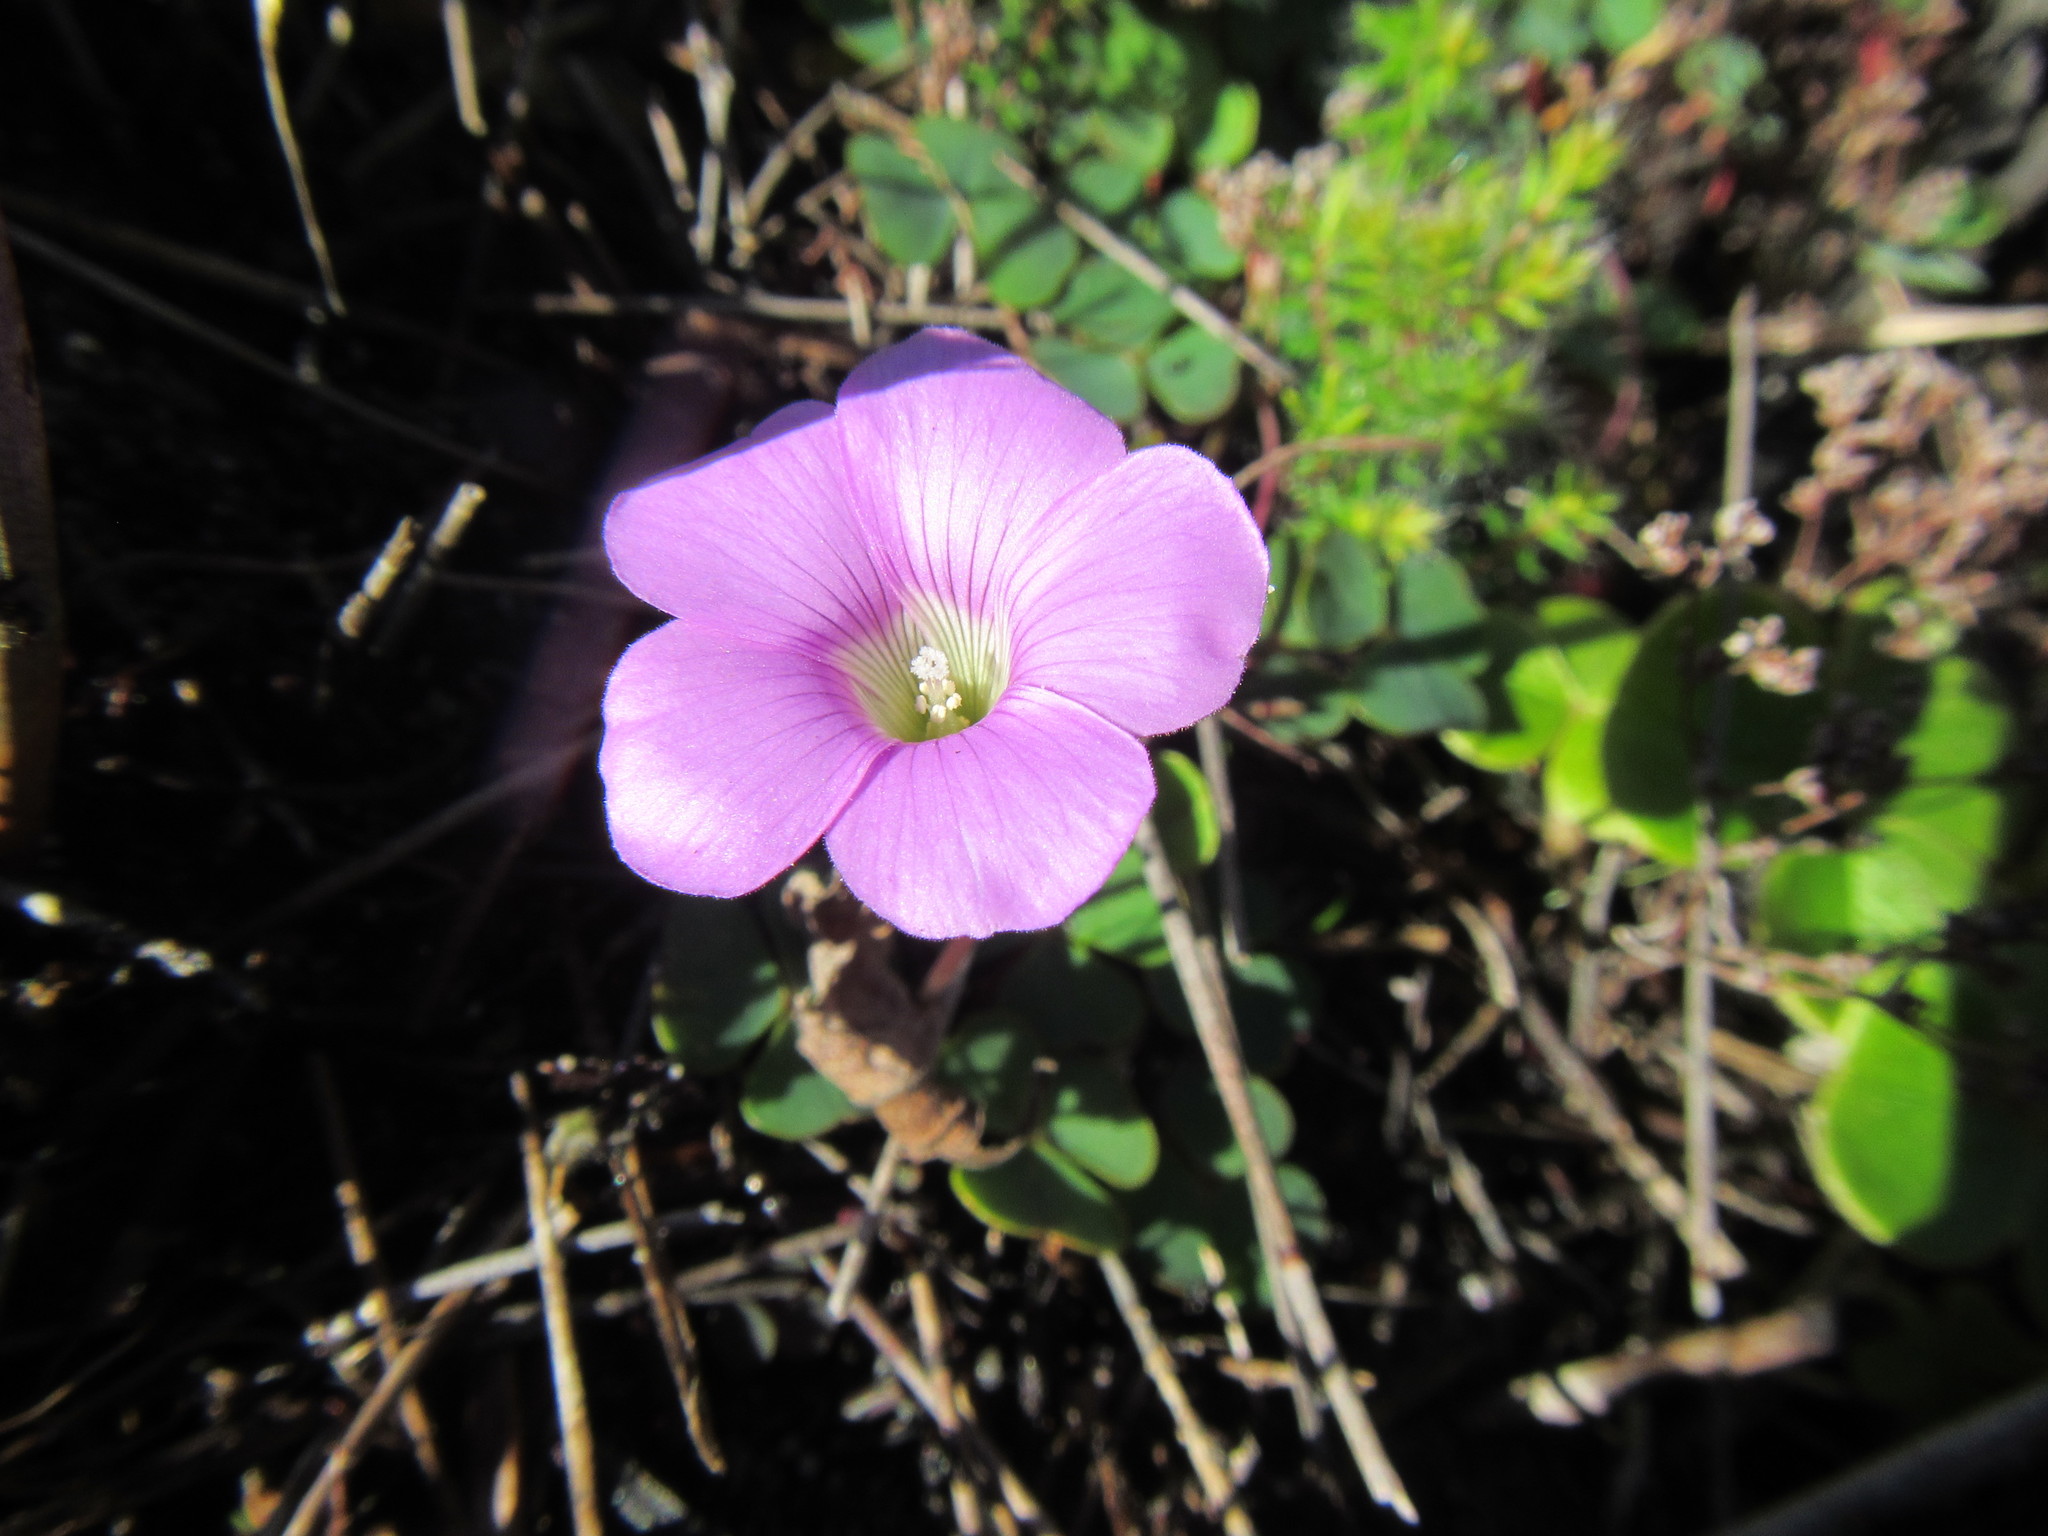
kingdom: Plantae
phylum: Tracheophyta
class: Magnoliopsida
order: Oxalidales
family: Oxalidaceae
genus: Oxalis
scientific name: Oxalis commutata
